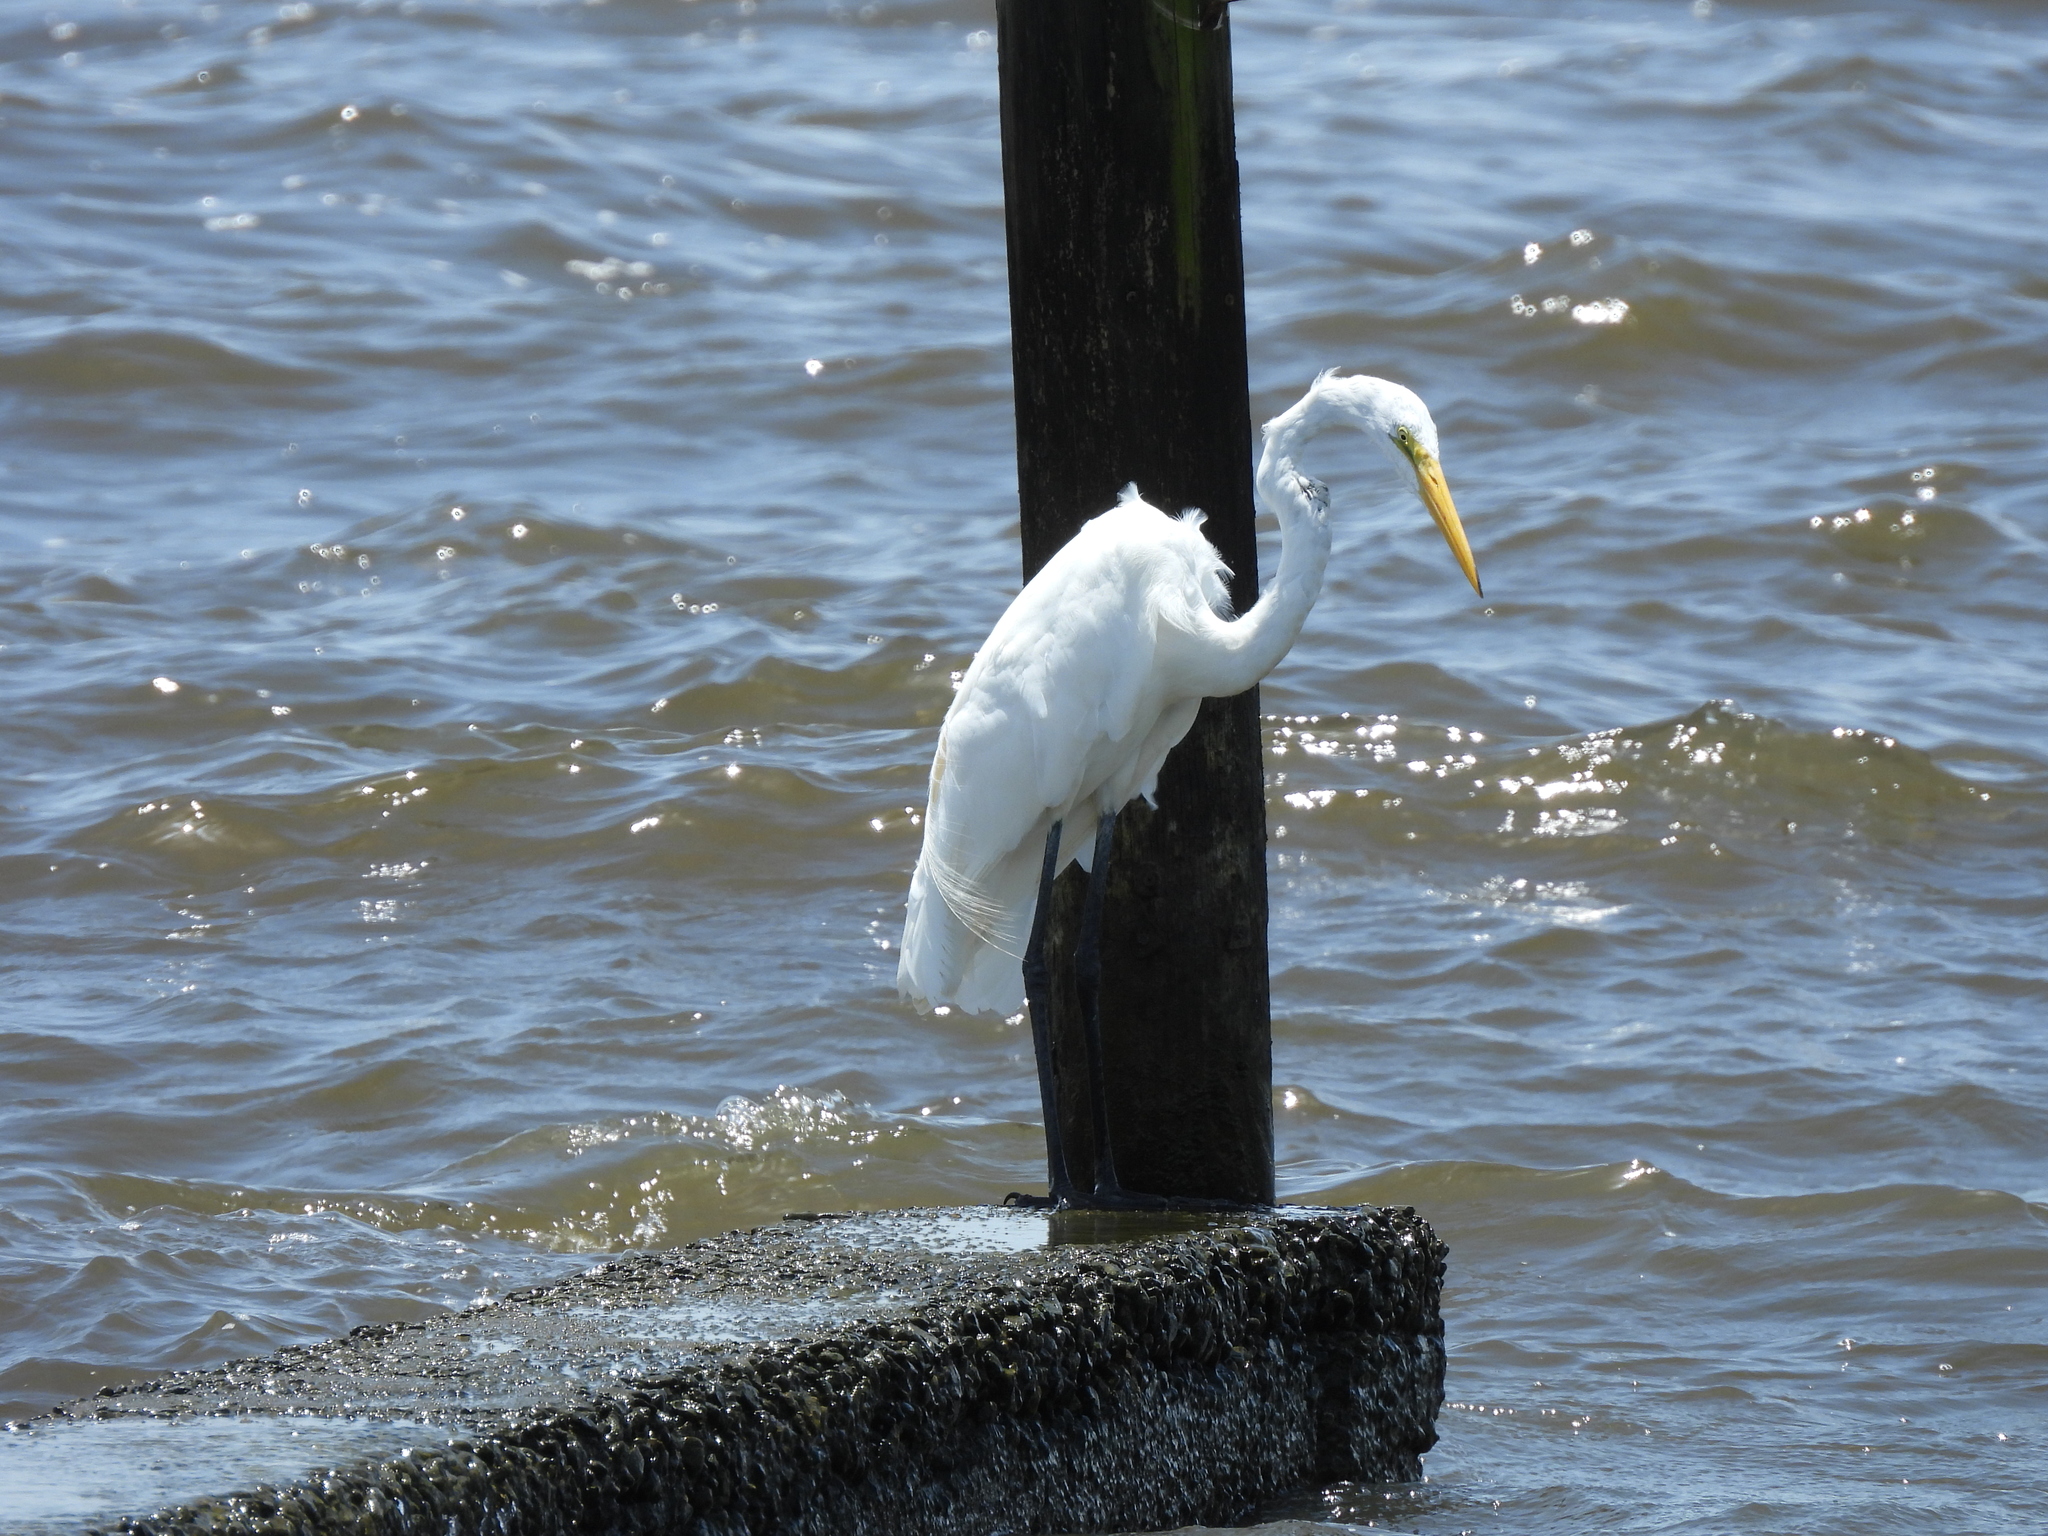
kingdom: Animalia
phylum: Chordata
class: Aves
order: Pelecaniformes
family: Ardeidae
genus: Ardea
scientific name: Ardea alba
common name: Great egret
